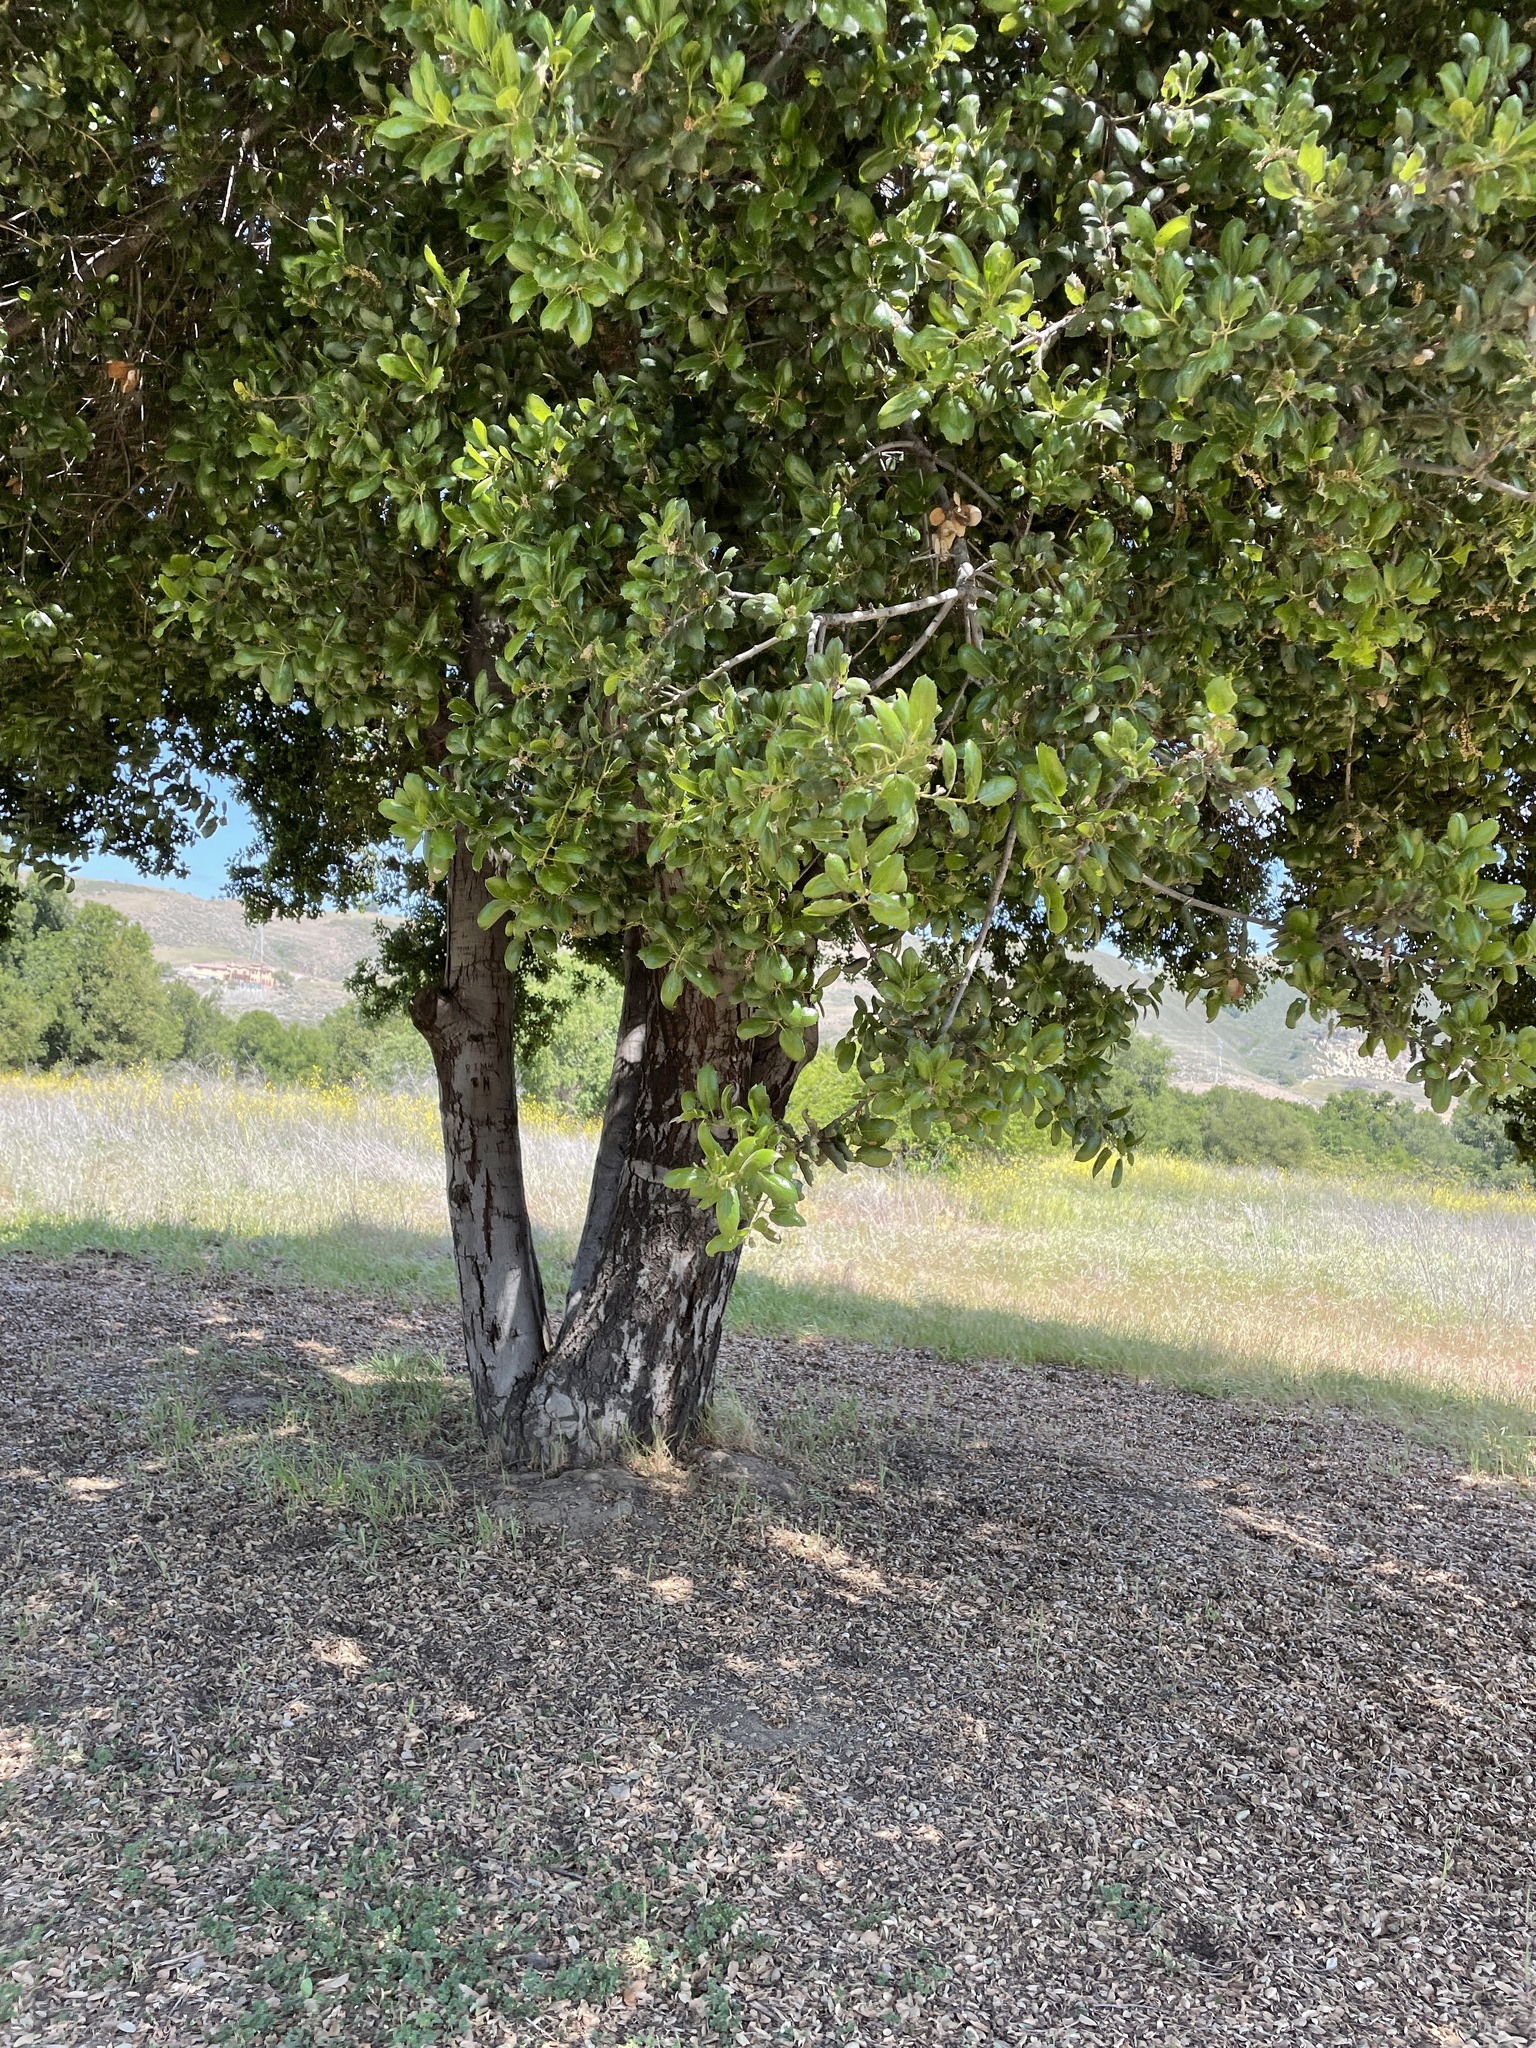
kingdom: Plantae
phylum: Tracheophyta
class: Magnoliopsida
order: Fagales
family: Fagaceae
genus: Quercus
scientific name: Quercus agrifolia
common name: California live oak
